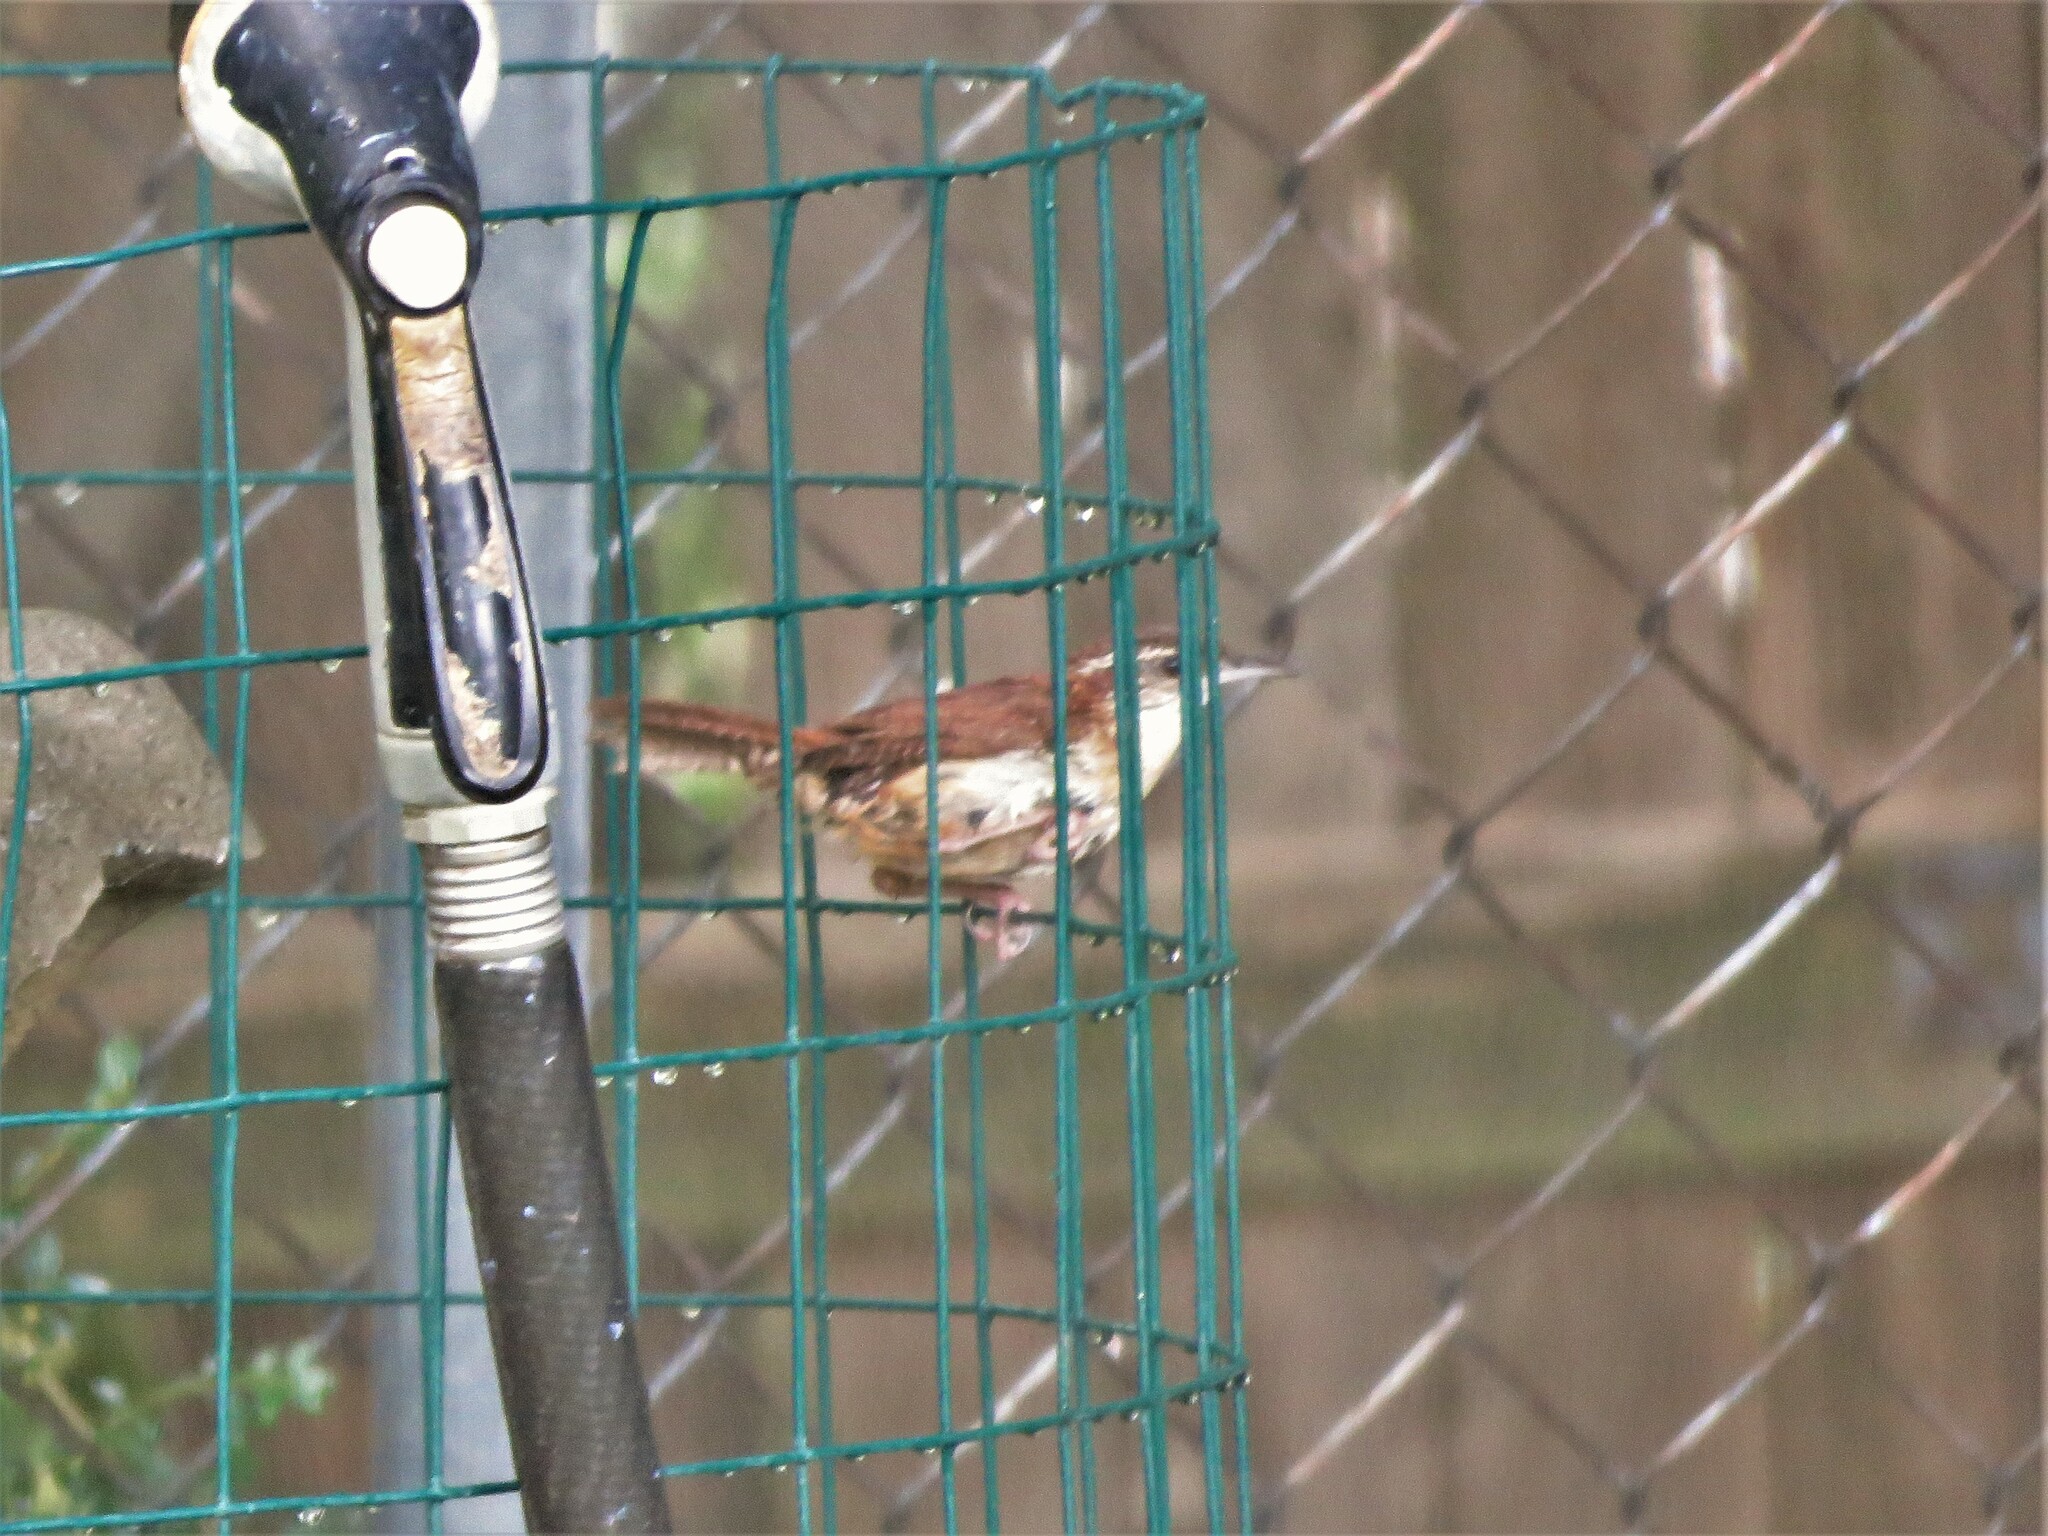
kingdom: Animalia
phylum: Chordata
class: Aves
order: Passeriformes
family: Troglodytidae
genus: Thryothorus
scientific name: Thryothorus ludovicianus
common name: Carolina wren
